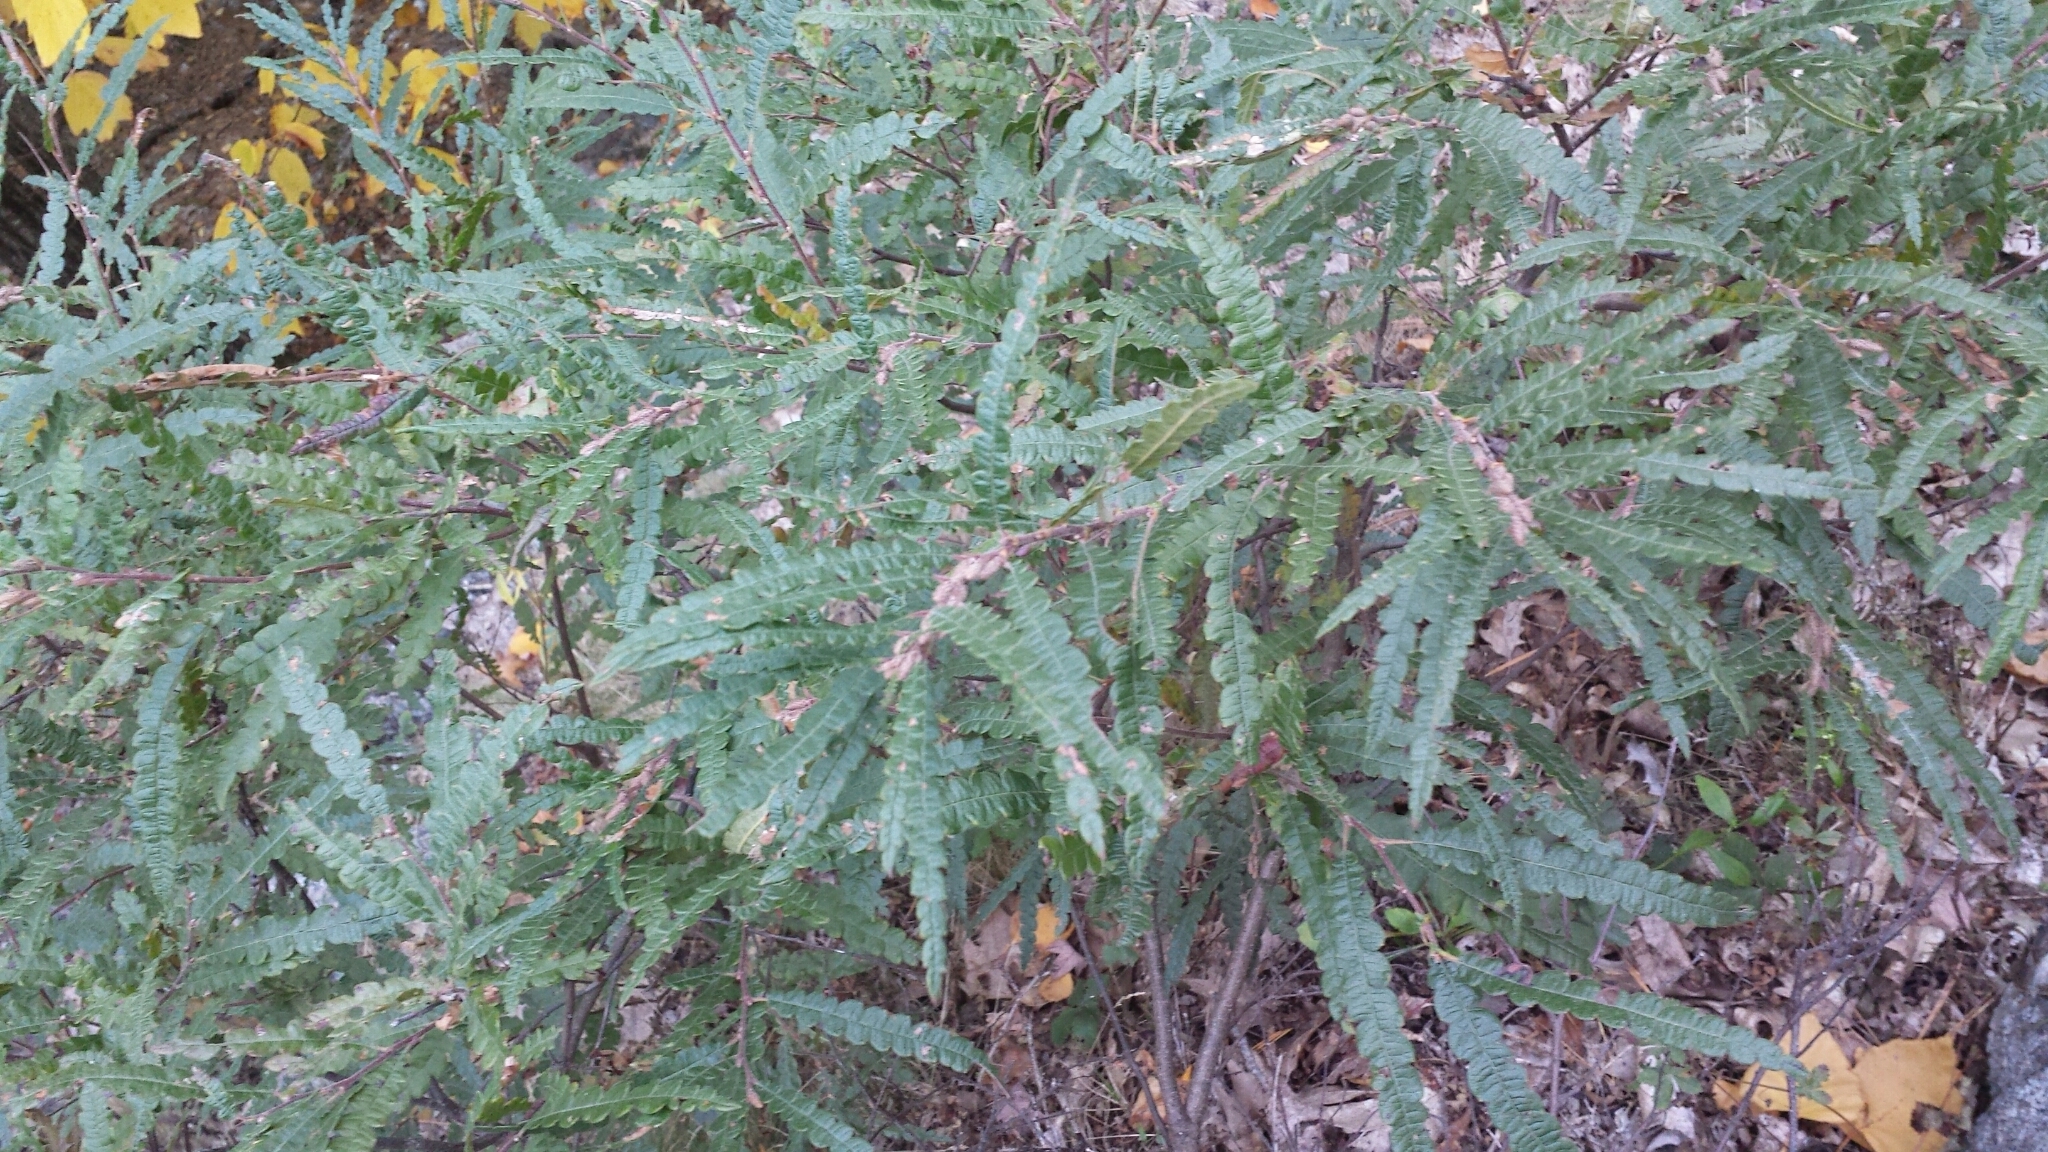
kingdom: Plantae
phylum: Tracheophyta
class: Magnoliopsida
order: Fagales
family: Myricaceae
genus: Comptonia
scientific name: Comptonia peregrina
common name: Sweet-fern
